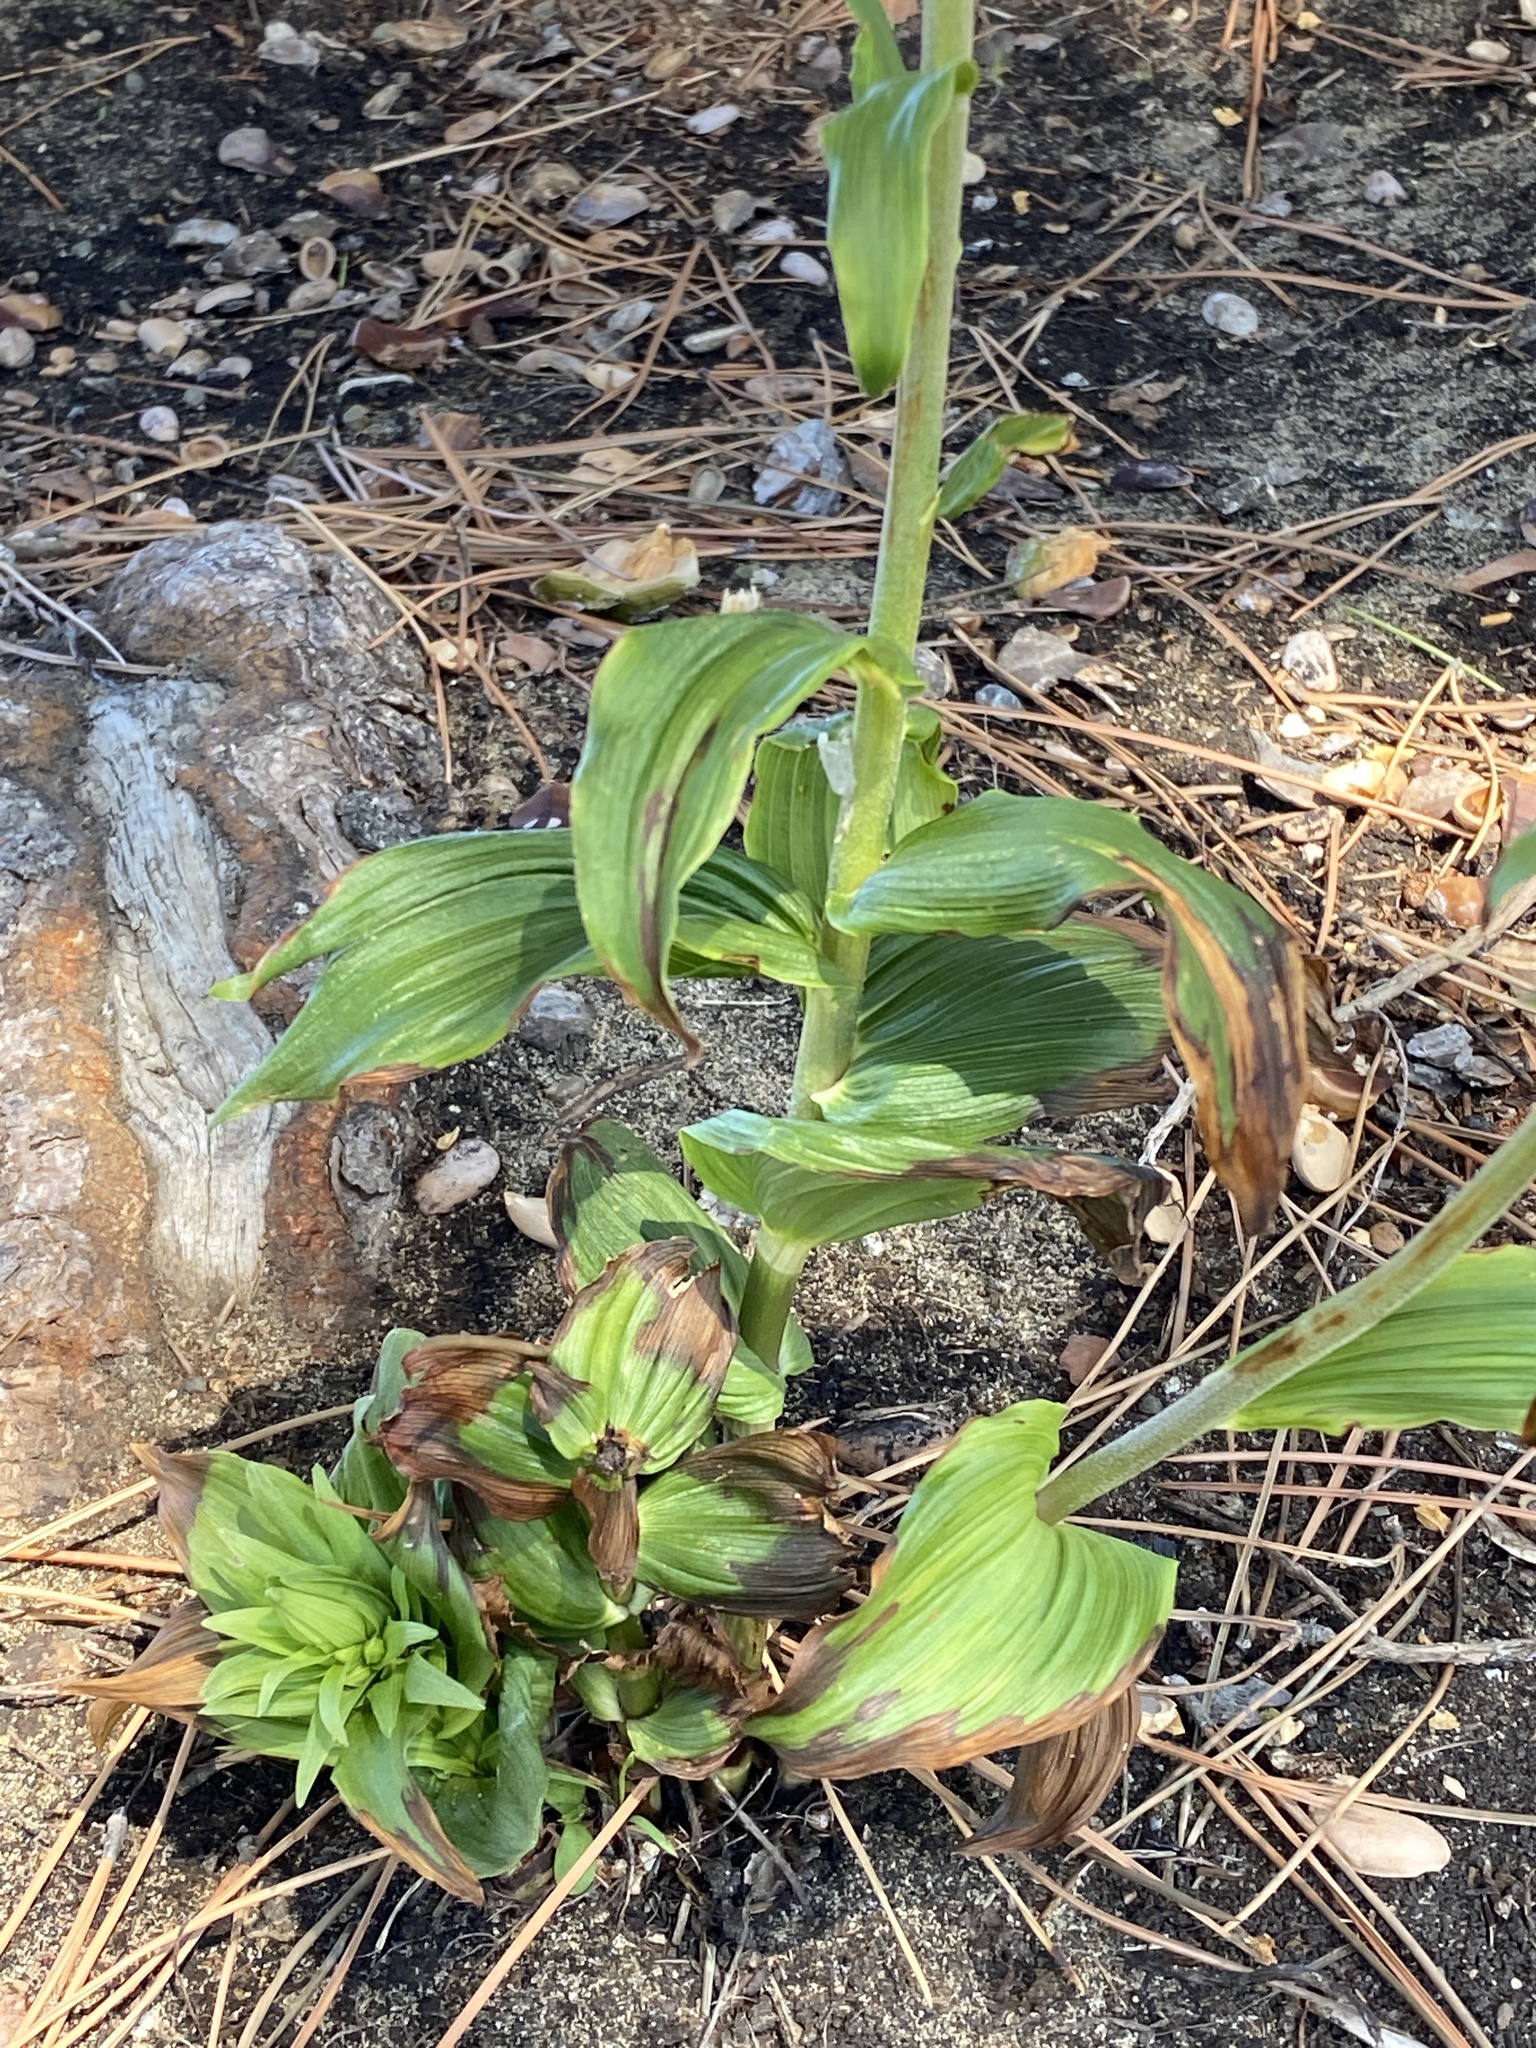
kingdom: Plantae
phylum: Tracheophyta
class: Liliopsida
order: Asparagales
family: Orchidaceae
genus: Epipactis
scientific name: Epipactis helleborine
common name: Broad-leaved helleborine
